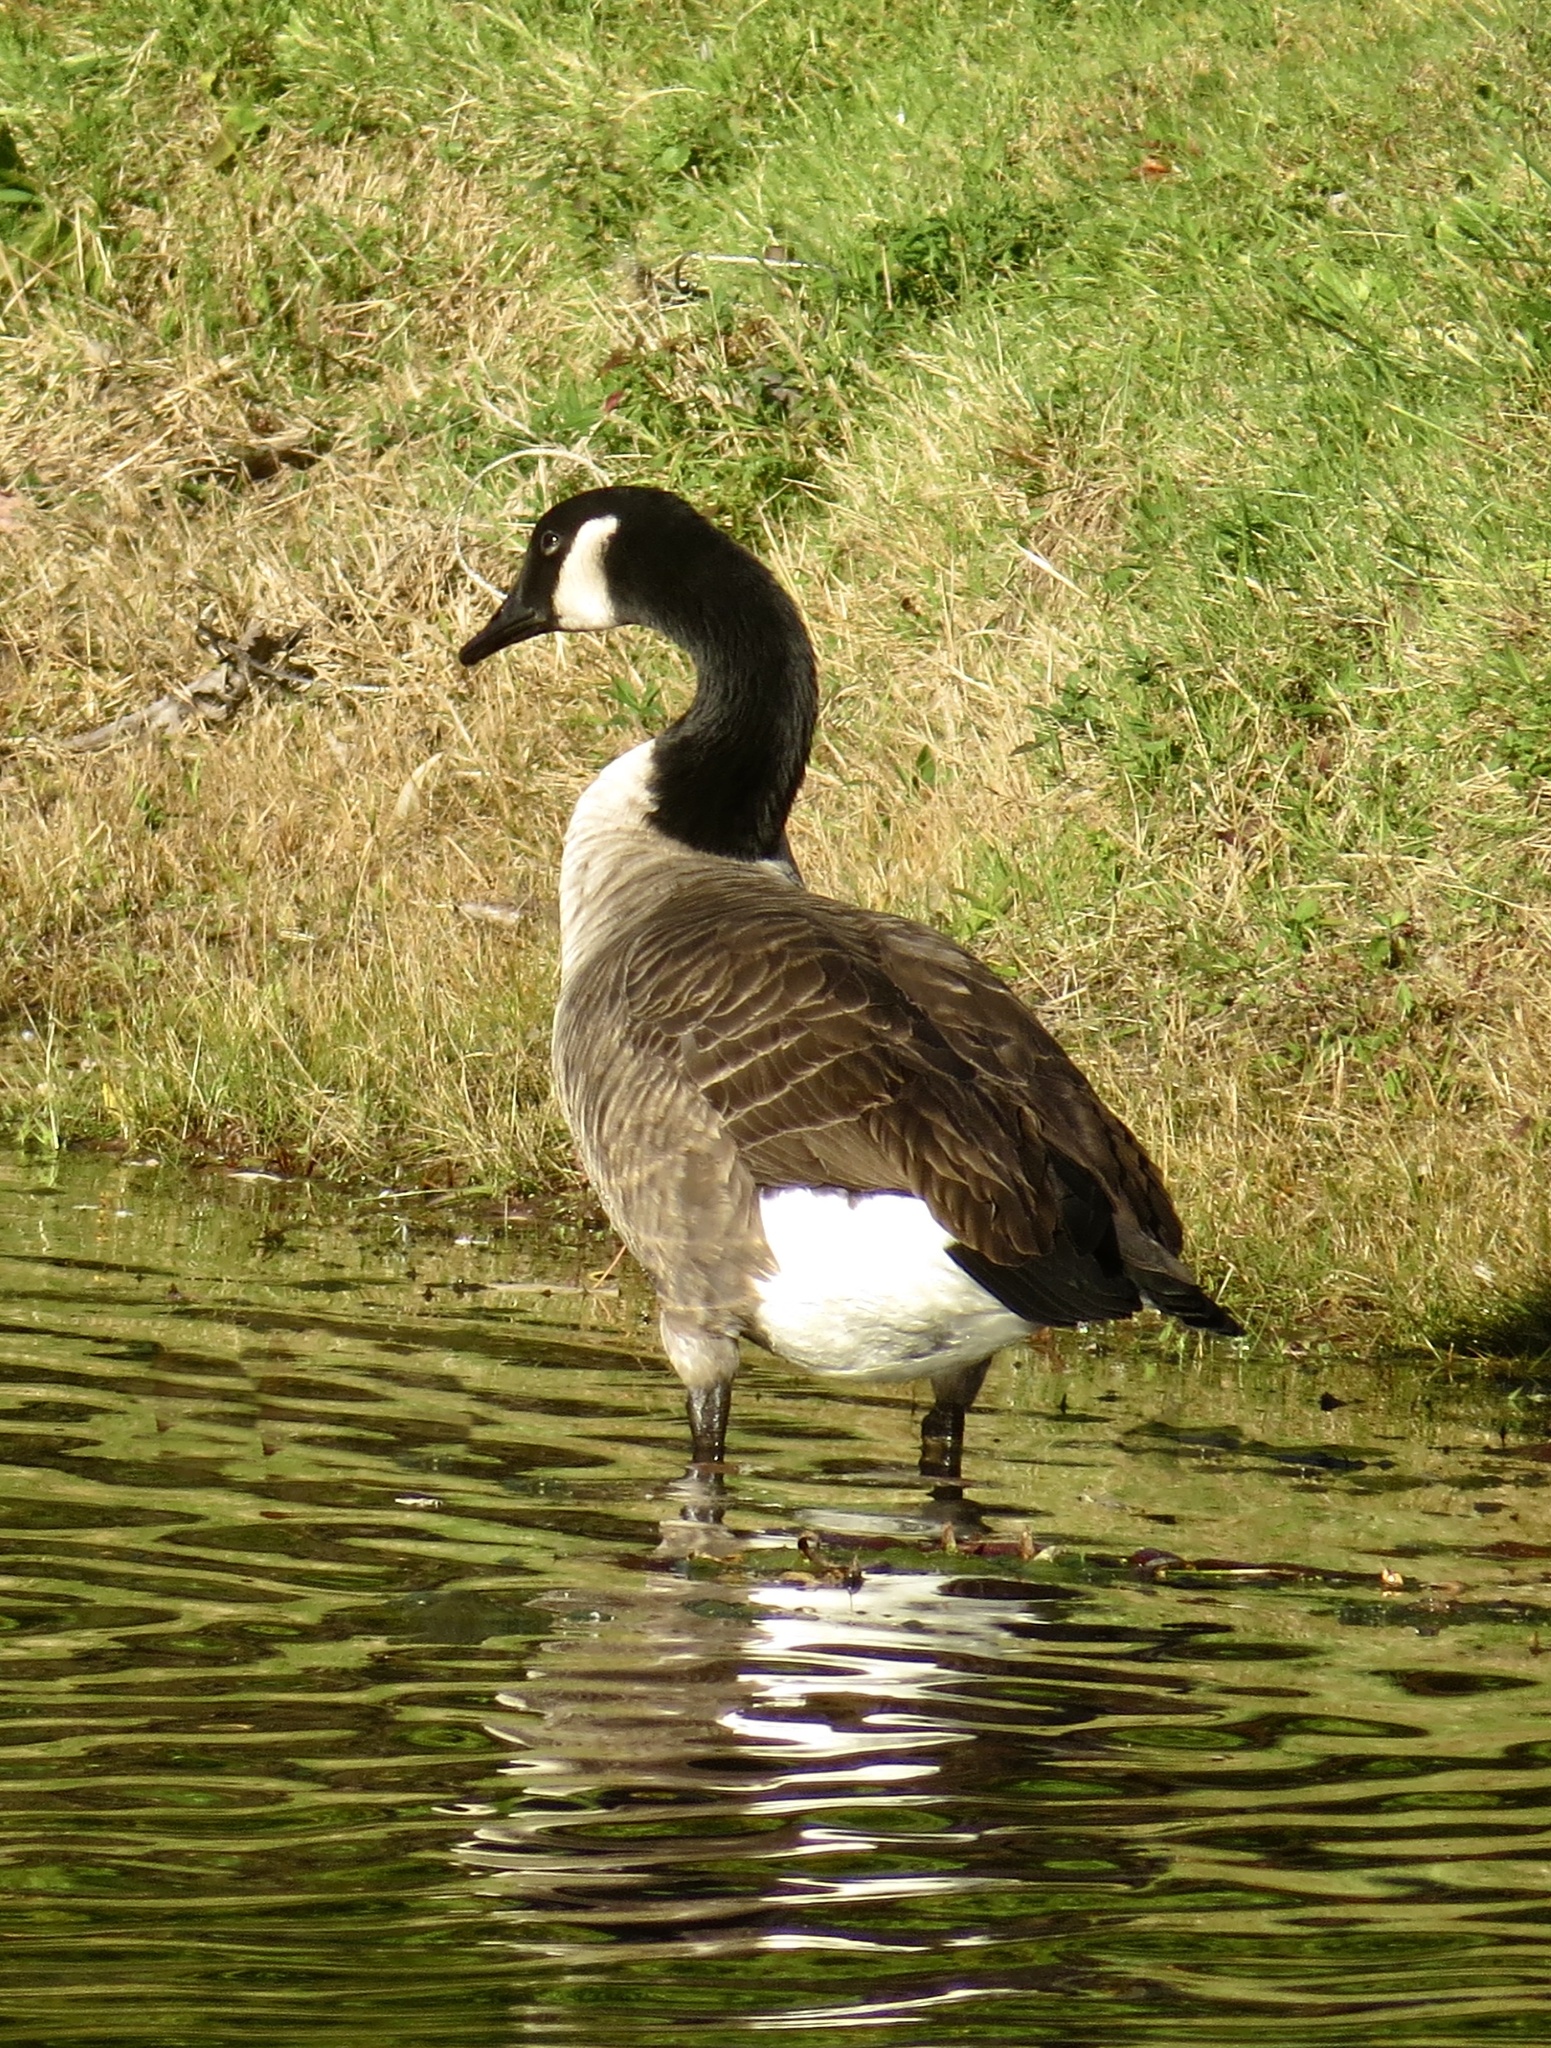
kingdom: Animalia
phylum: Chordata
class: Aves
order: Anseriformes
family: Anatidae
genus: Branta
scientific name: Branta canadensis
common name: Canada goose
